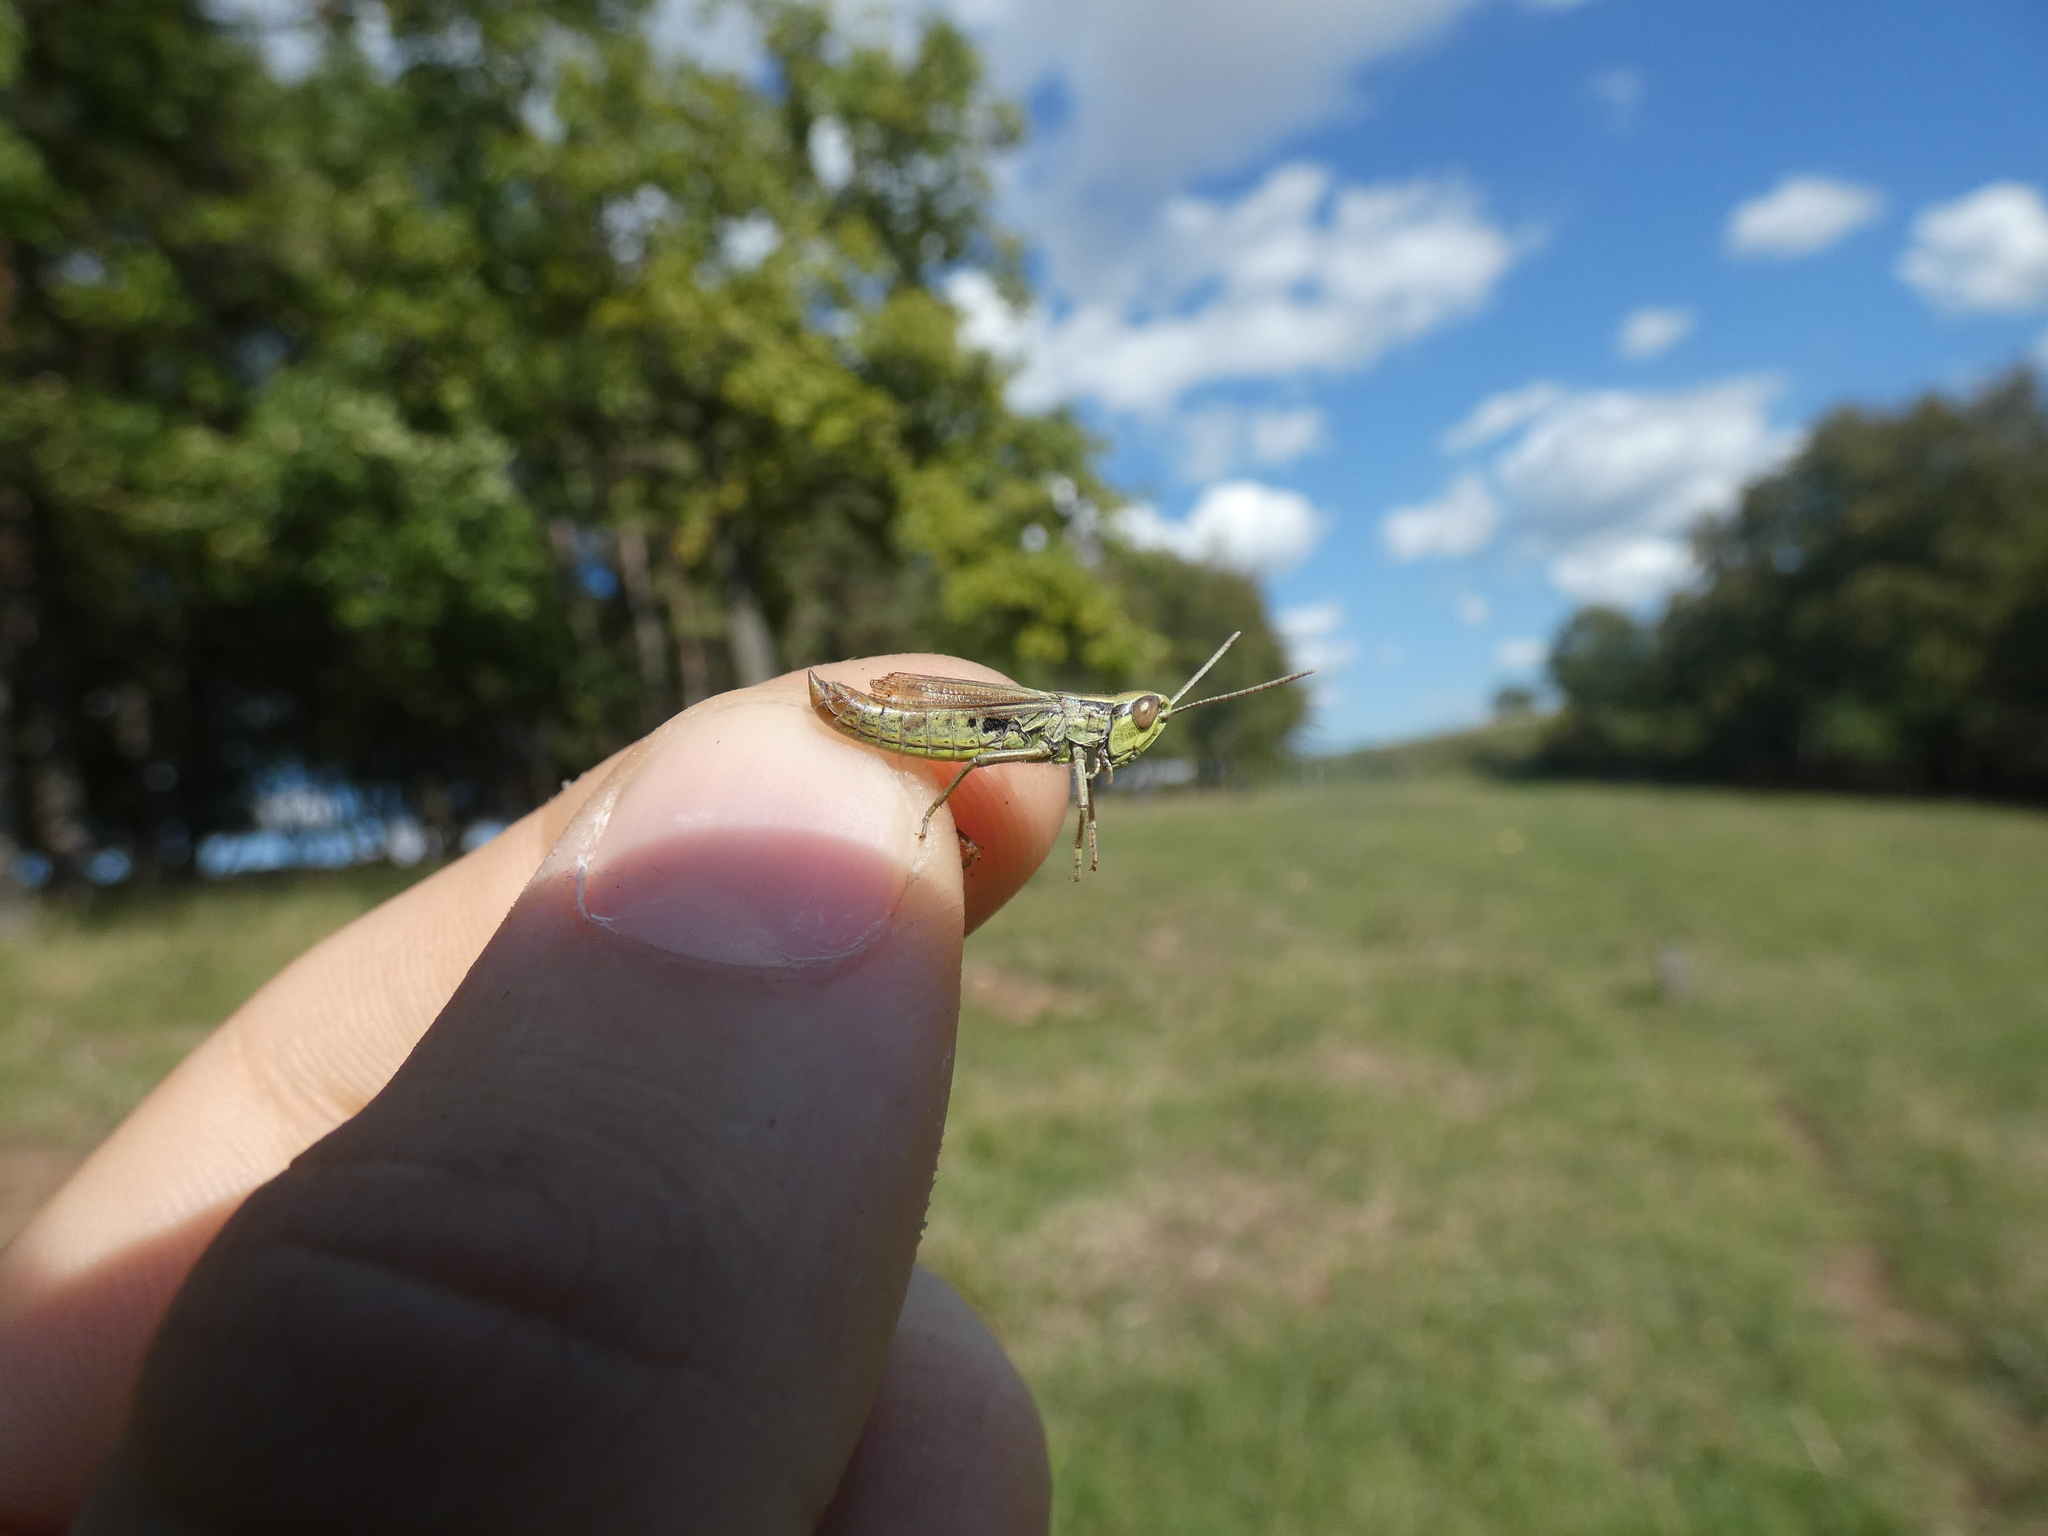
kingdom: Animalia
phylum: Arthropoda
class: Insecta
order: Orthoptera
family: Acrididae
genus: Euchorthippus
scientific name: Euchorthippus declivus
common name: Common straw grasshopper
